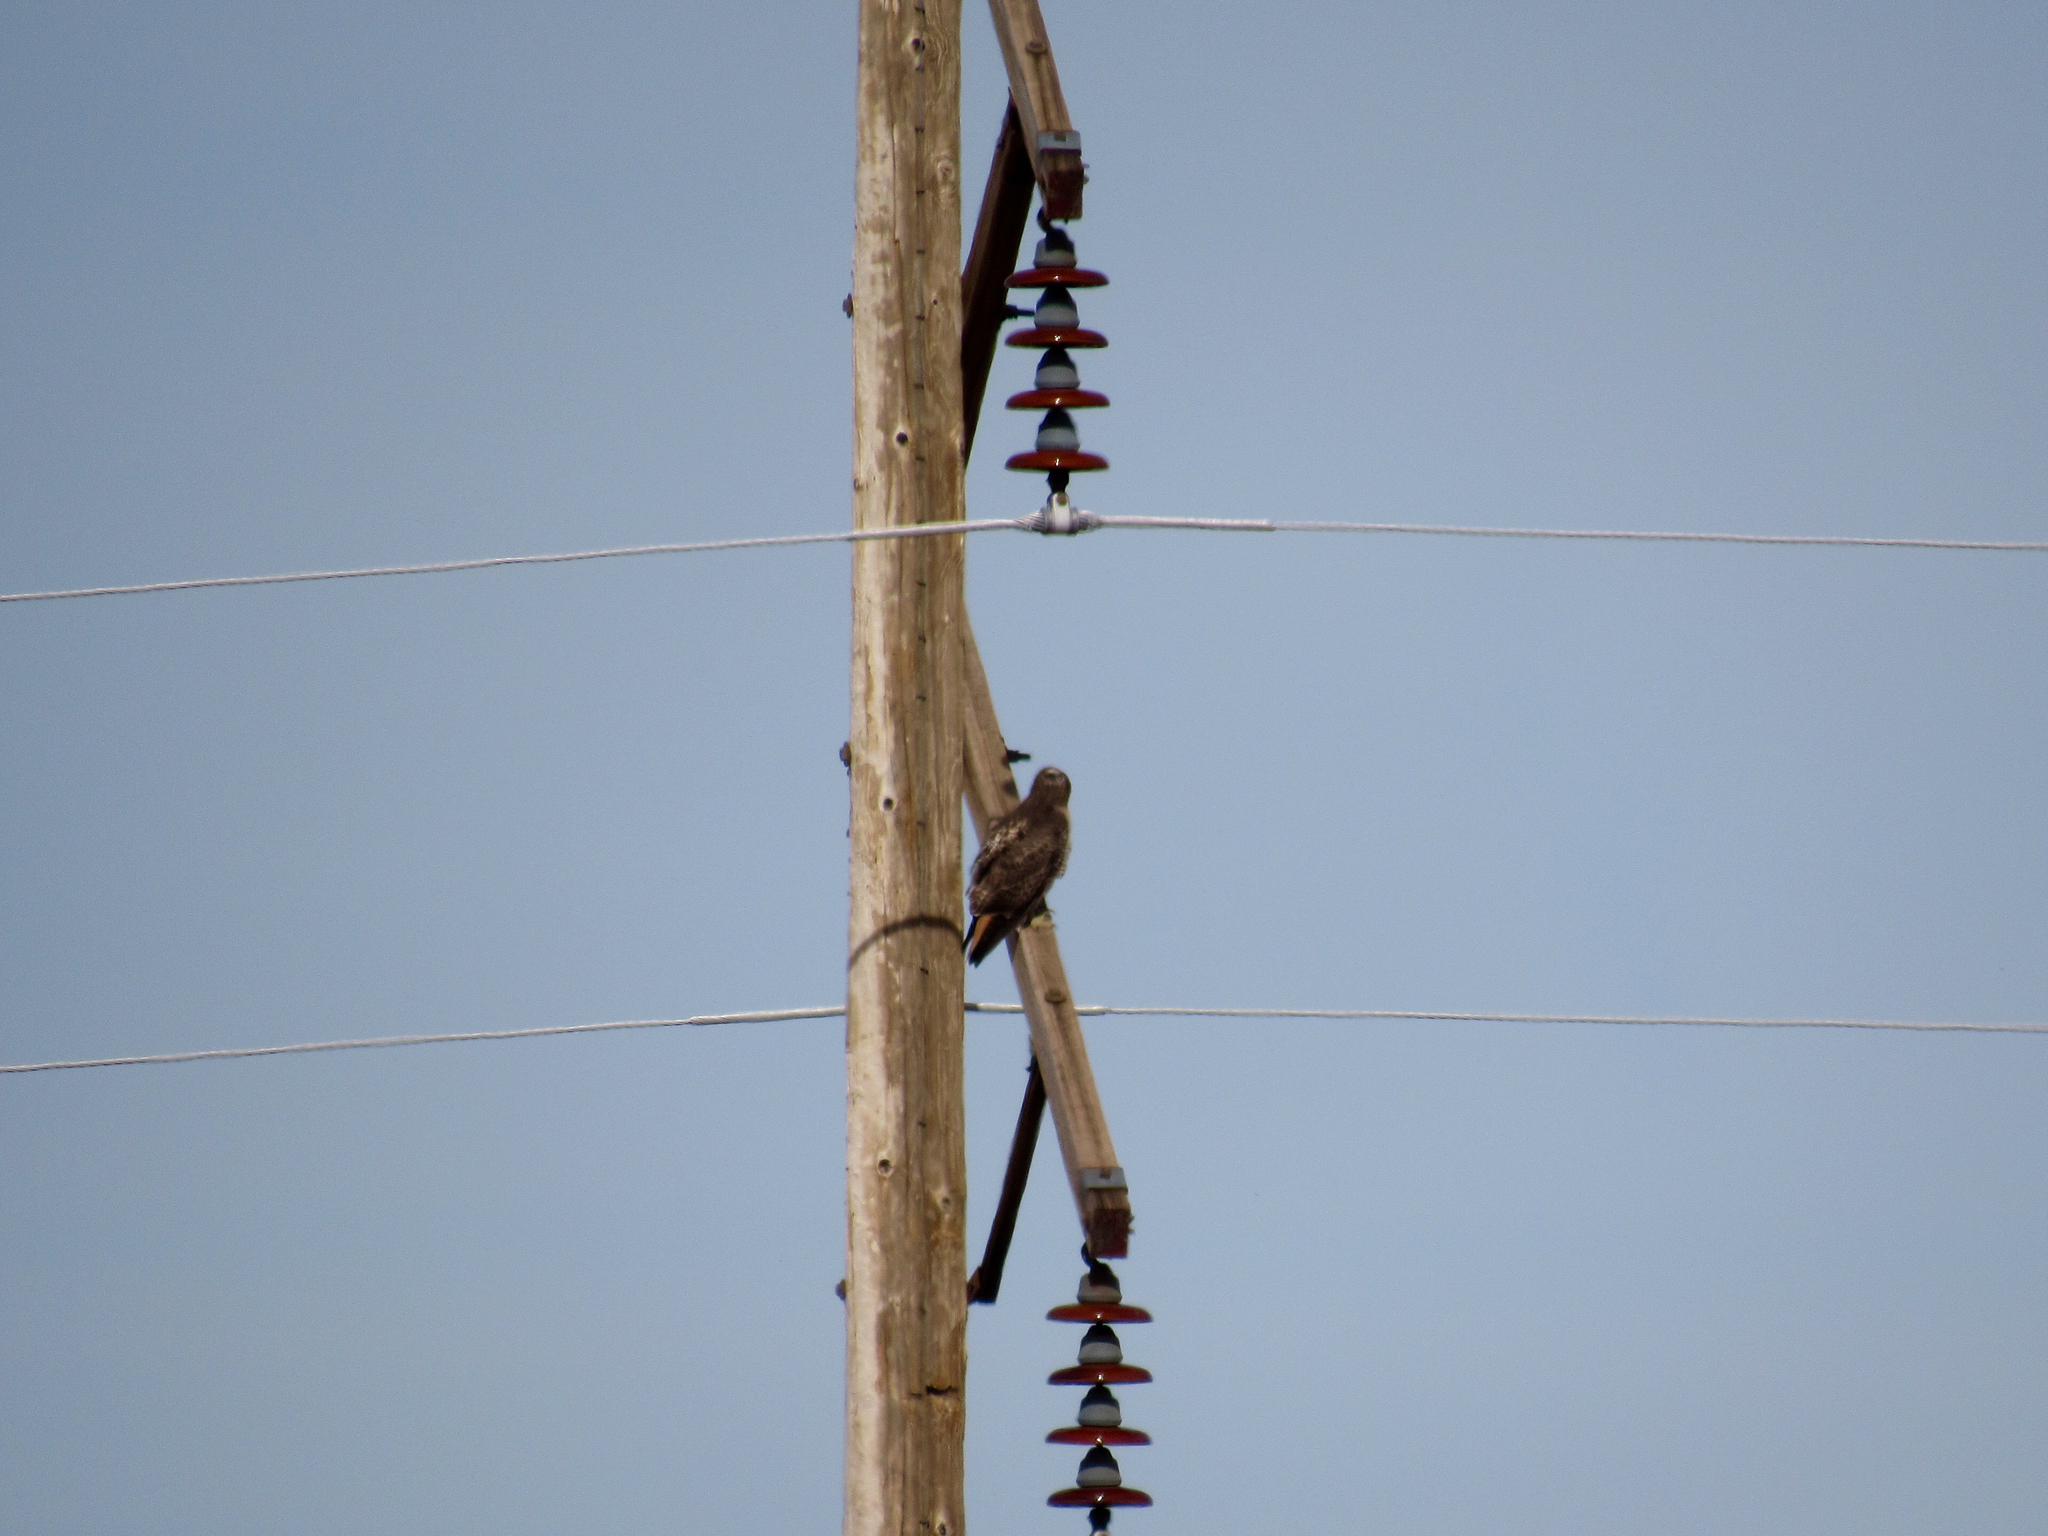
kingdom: Animalia
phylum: Chordata
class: Aves
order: Accipitriformes
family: Accipitridae
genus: Buteo
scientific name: Buteo jamaicensis
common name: Red-tailed hawk
